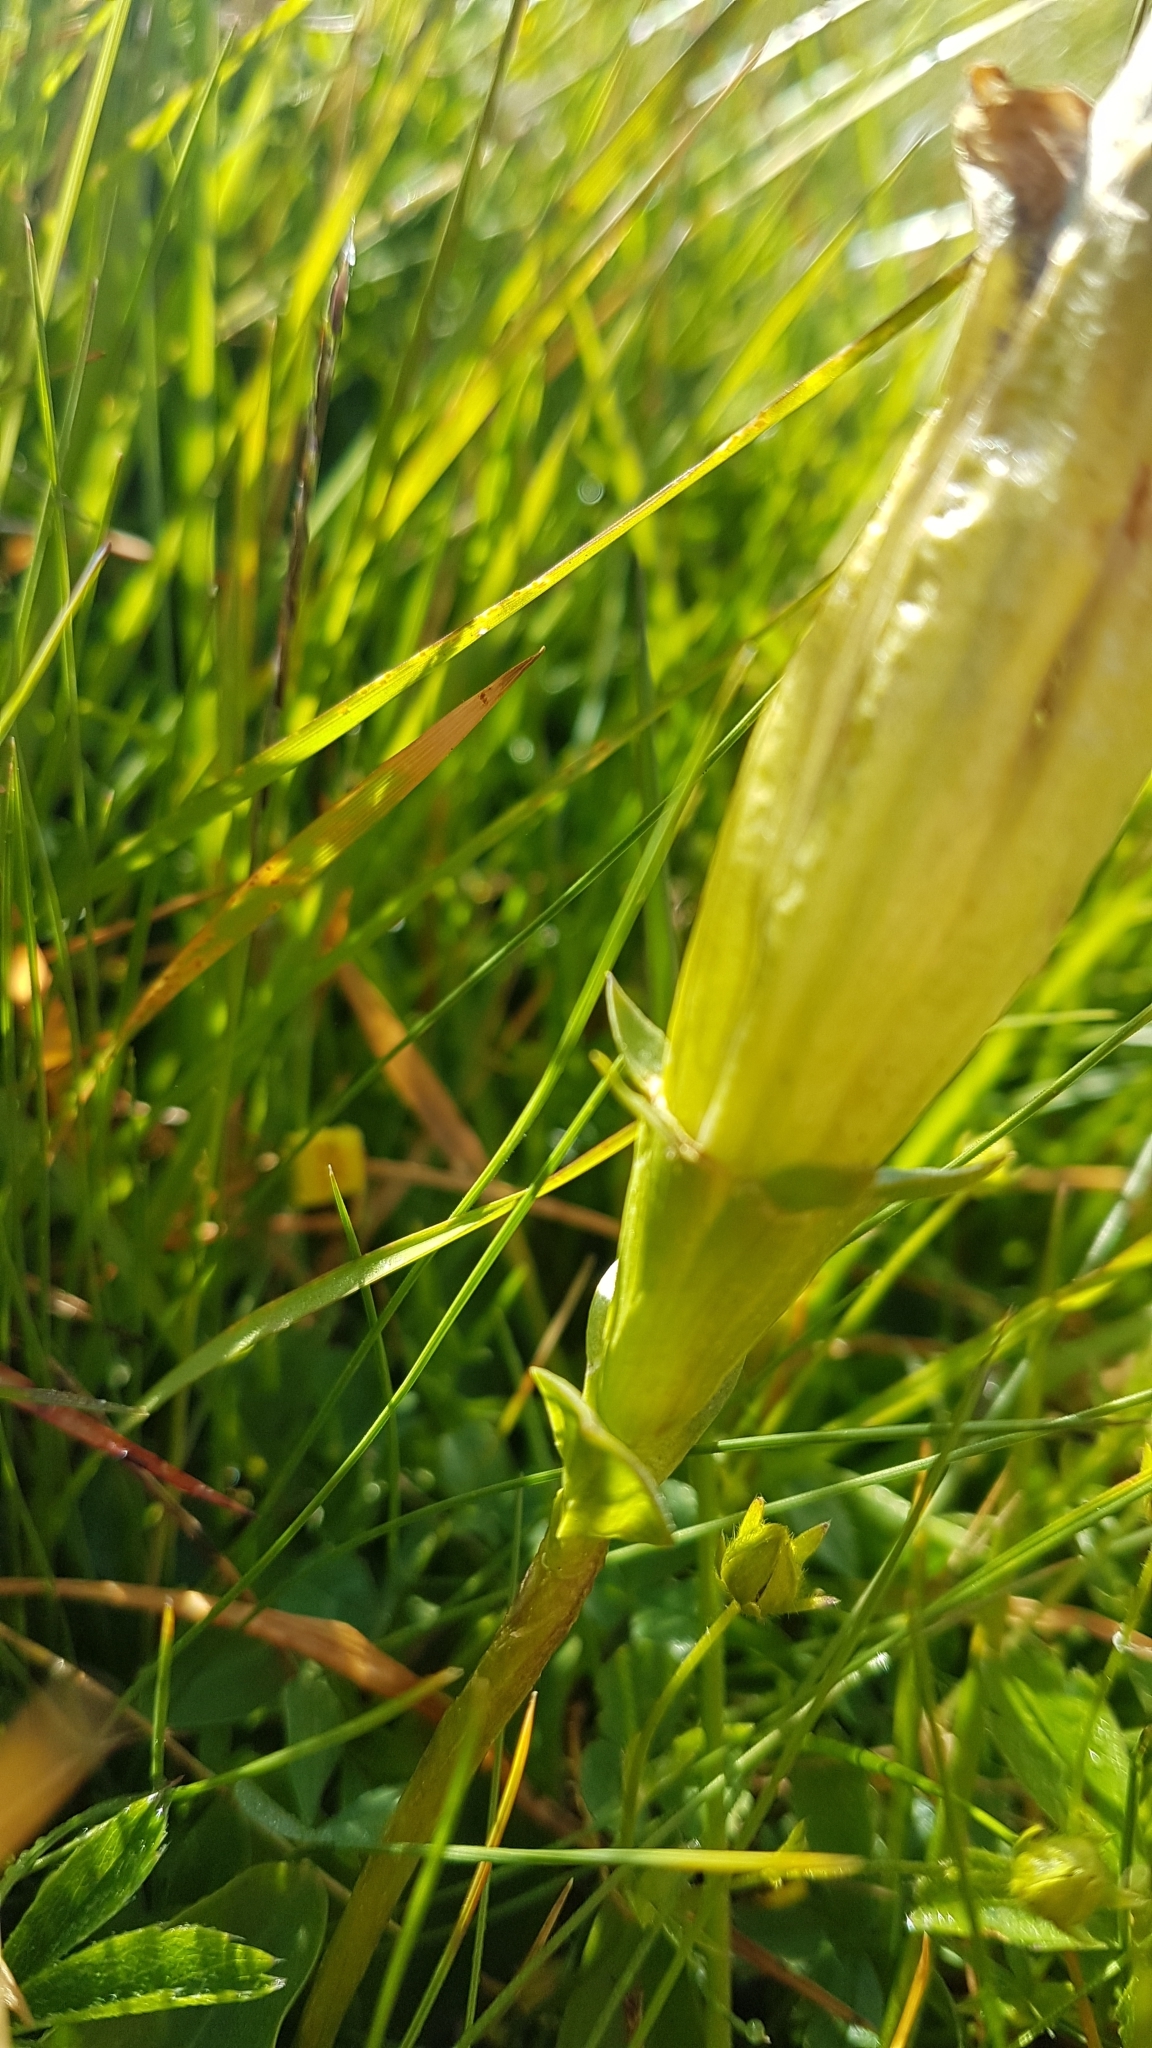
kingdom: Plantae
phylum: Tracheophyta
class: Magnoliopsida
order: Gentianales
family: Gentianaceae
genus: Gentiana
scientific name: Gentiana acaulis
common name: Trumpet gentian
